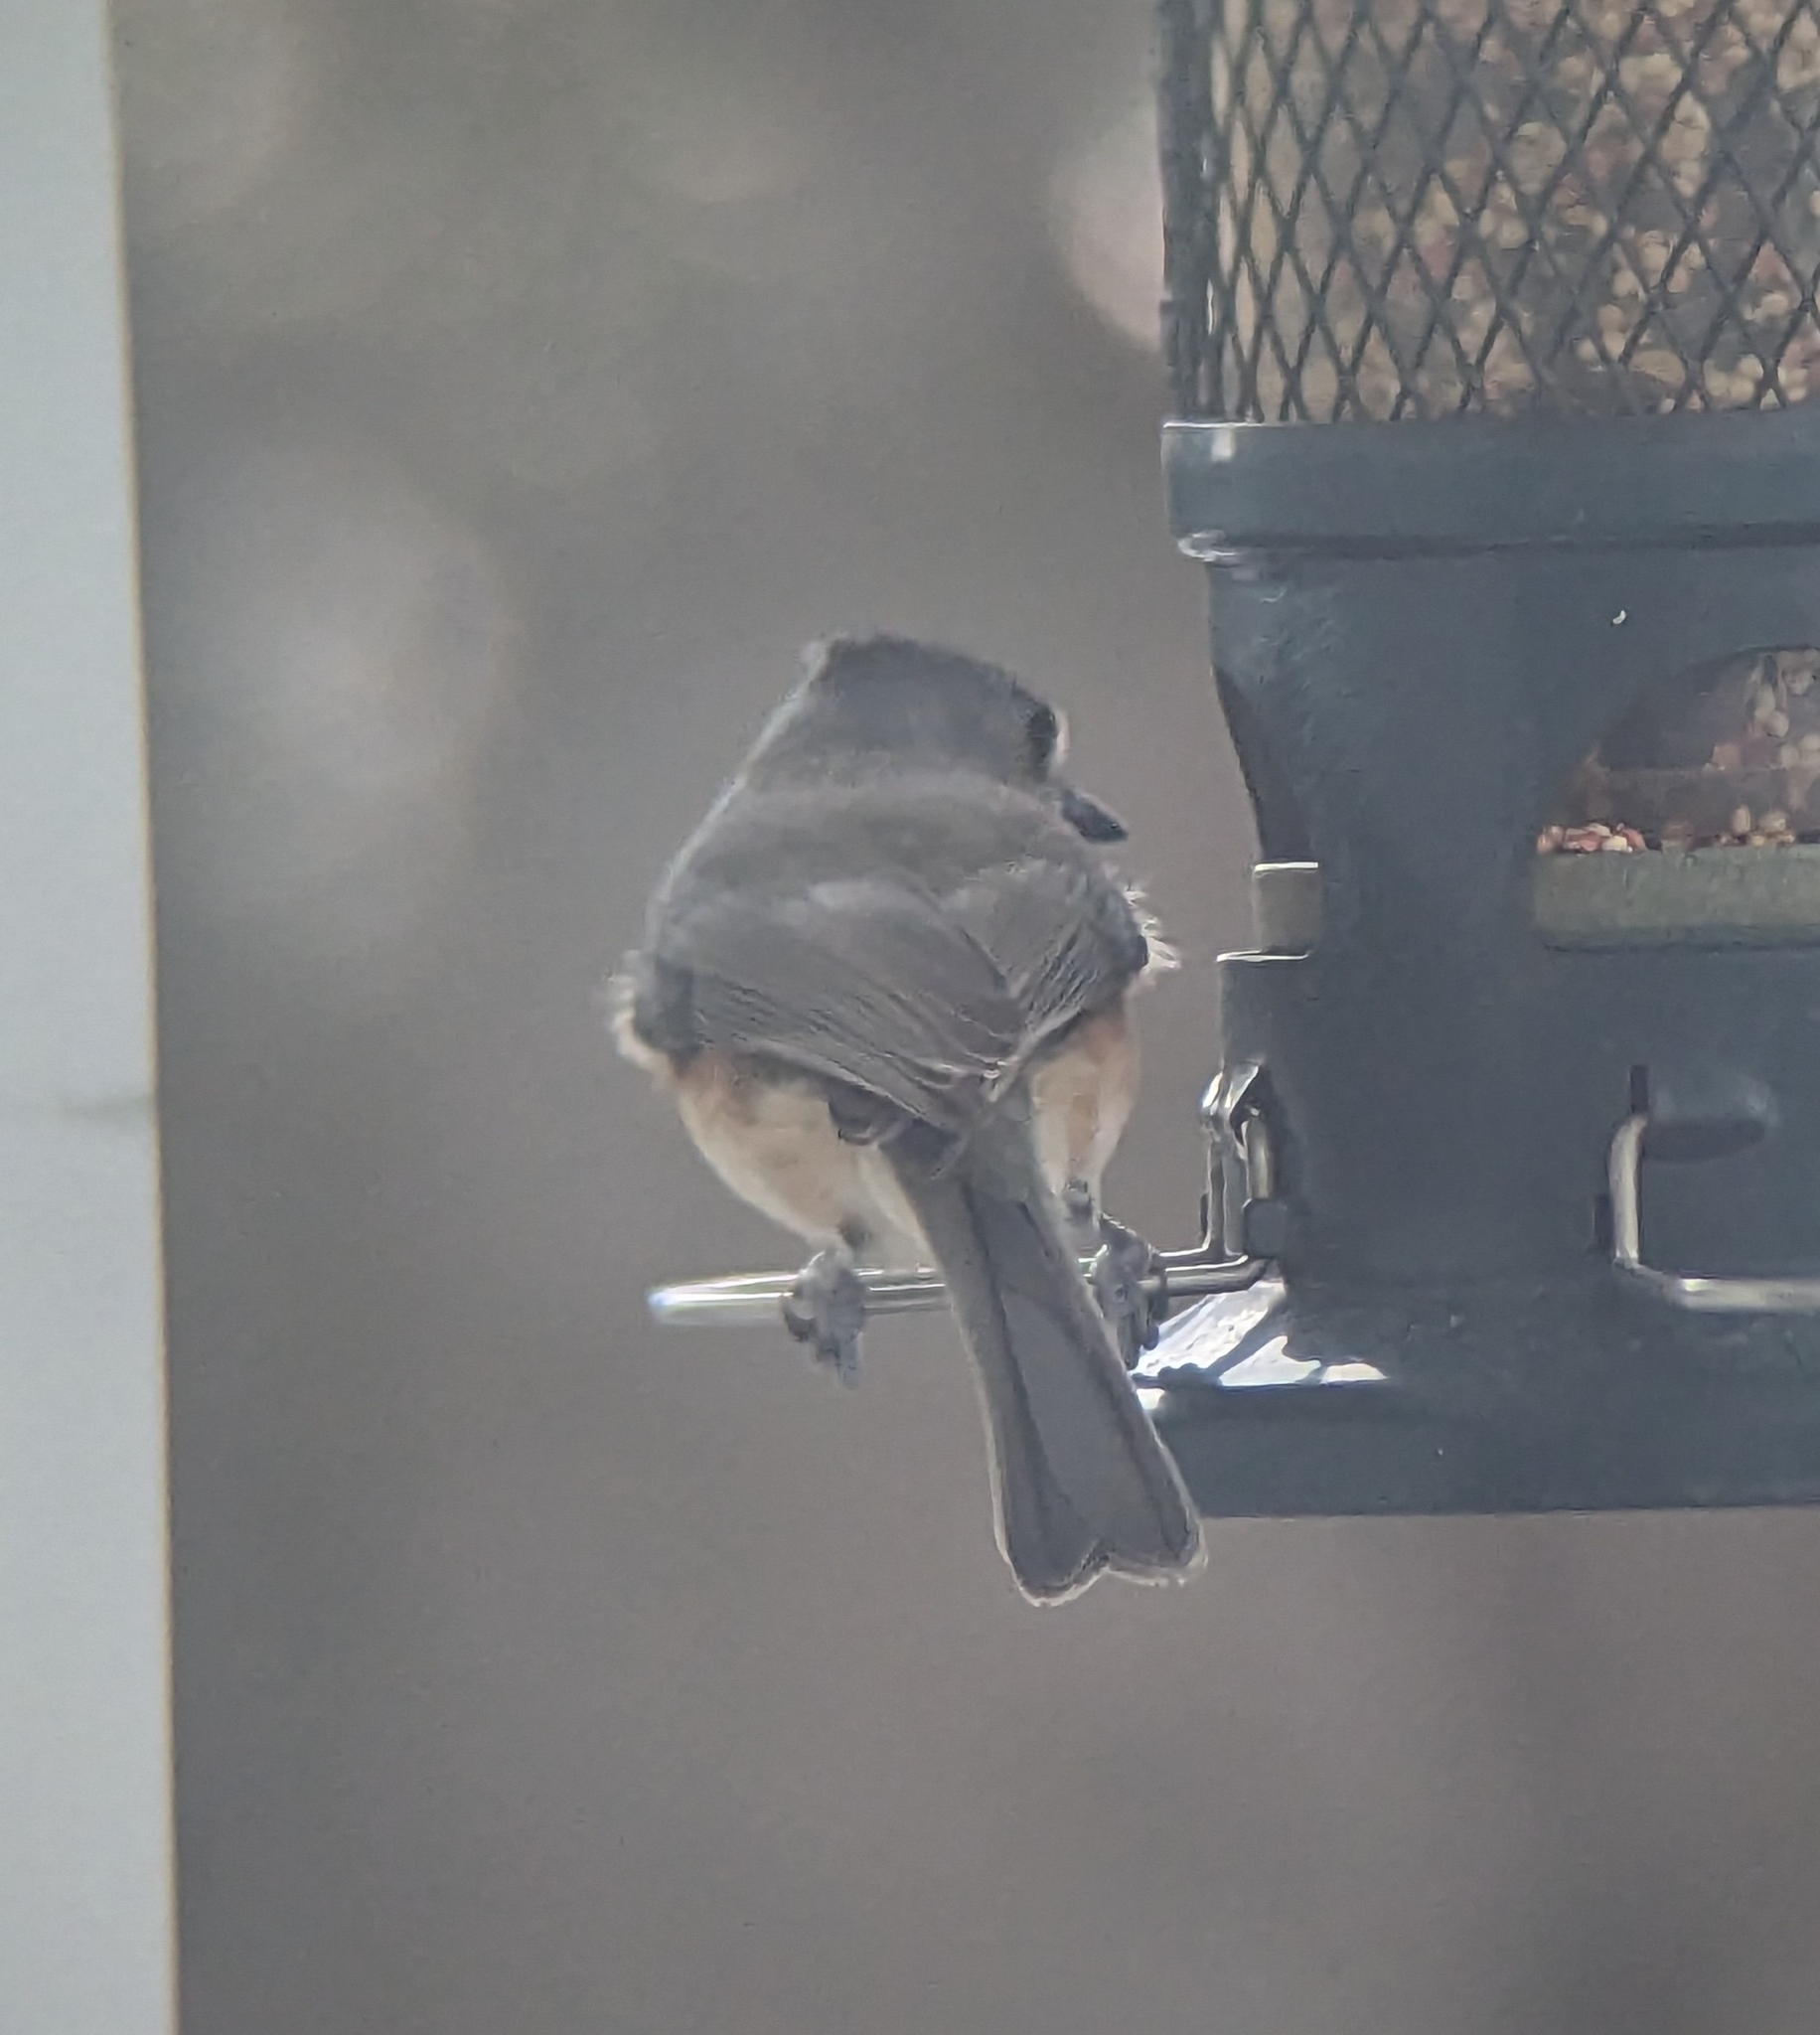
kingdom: Animalia
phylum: Chordata
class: Aves
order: Passeriformes
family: Paridae
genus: Baeolophus
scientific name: Baeolophus bicolor
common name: Tufted titmouse
